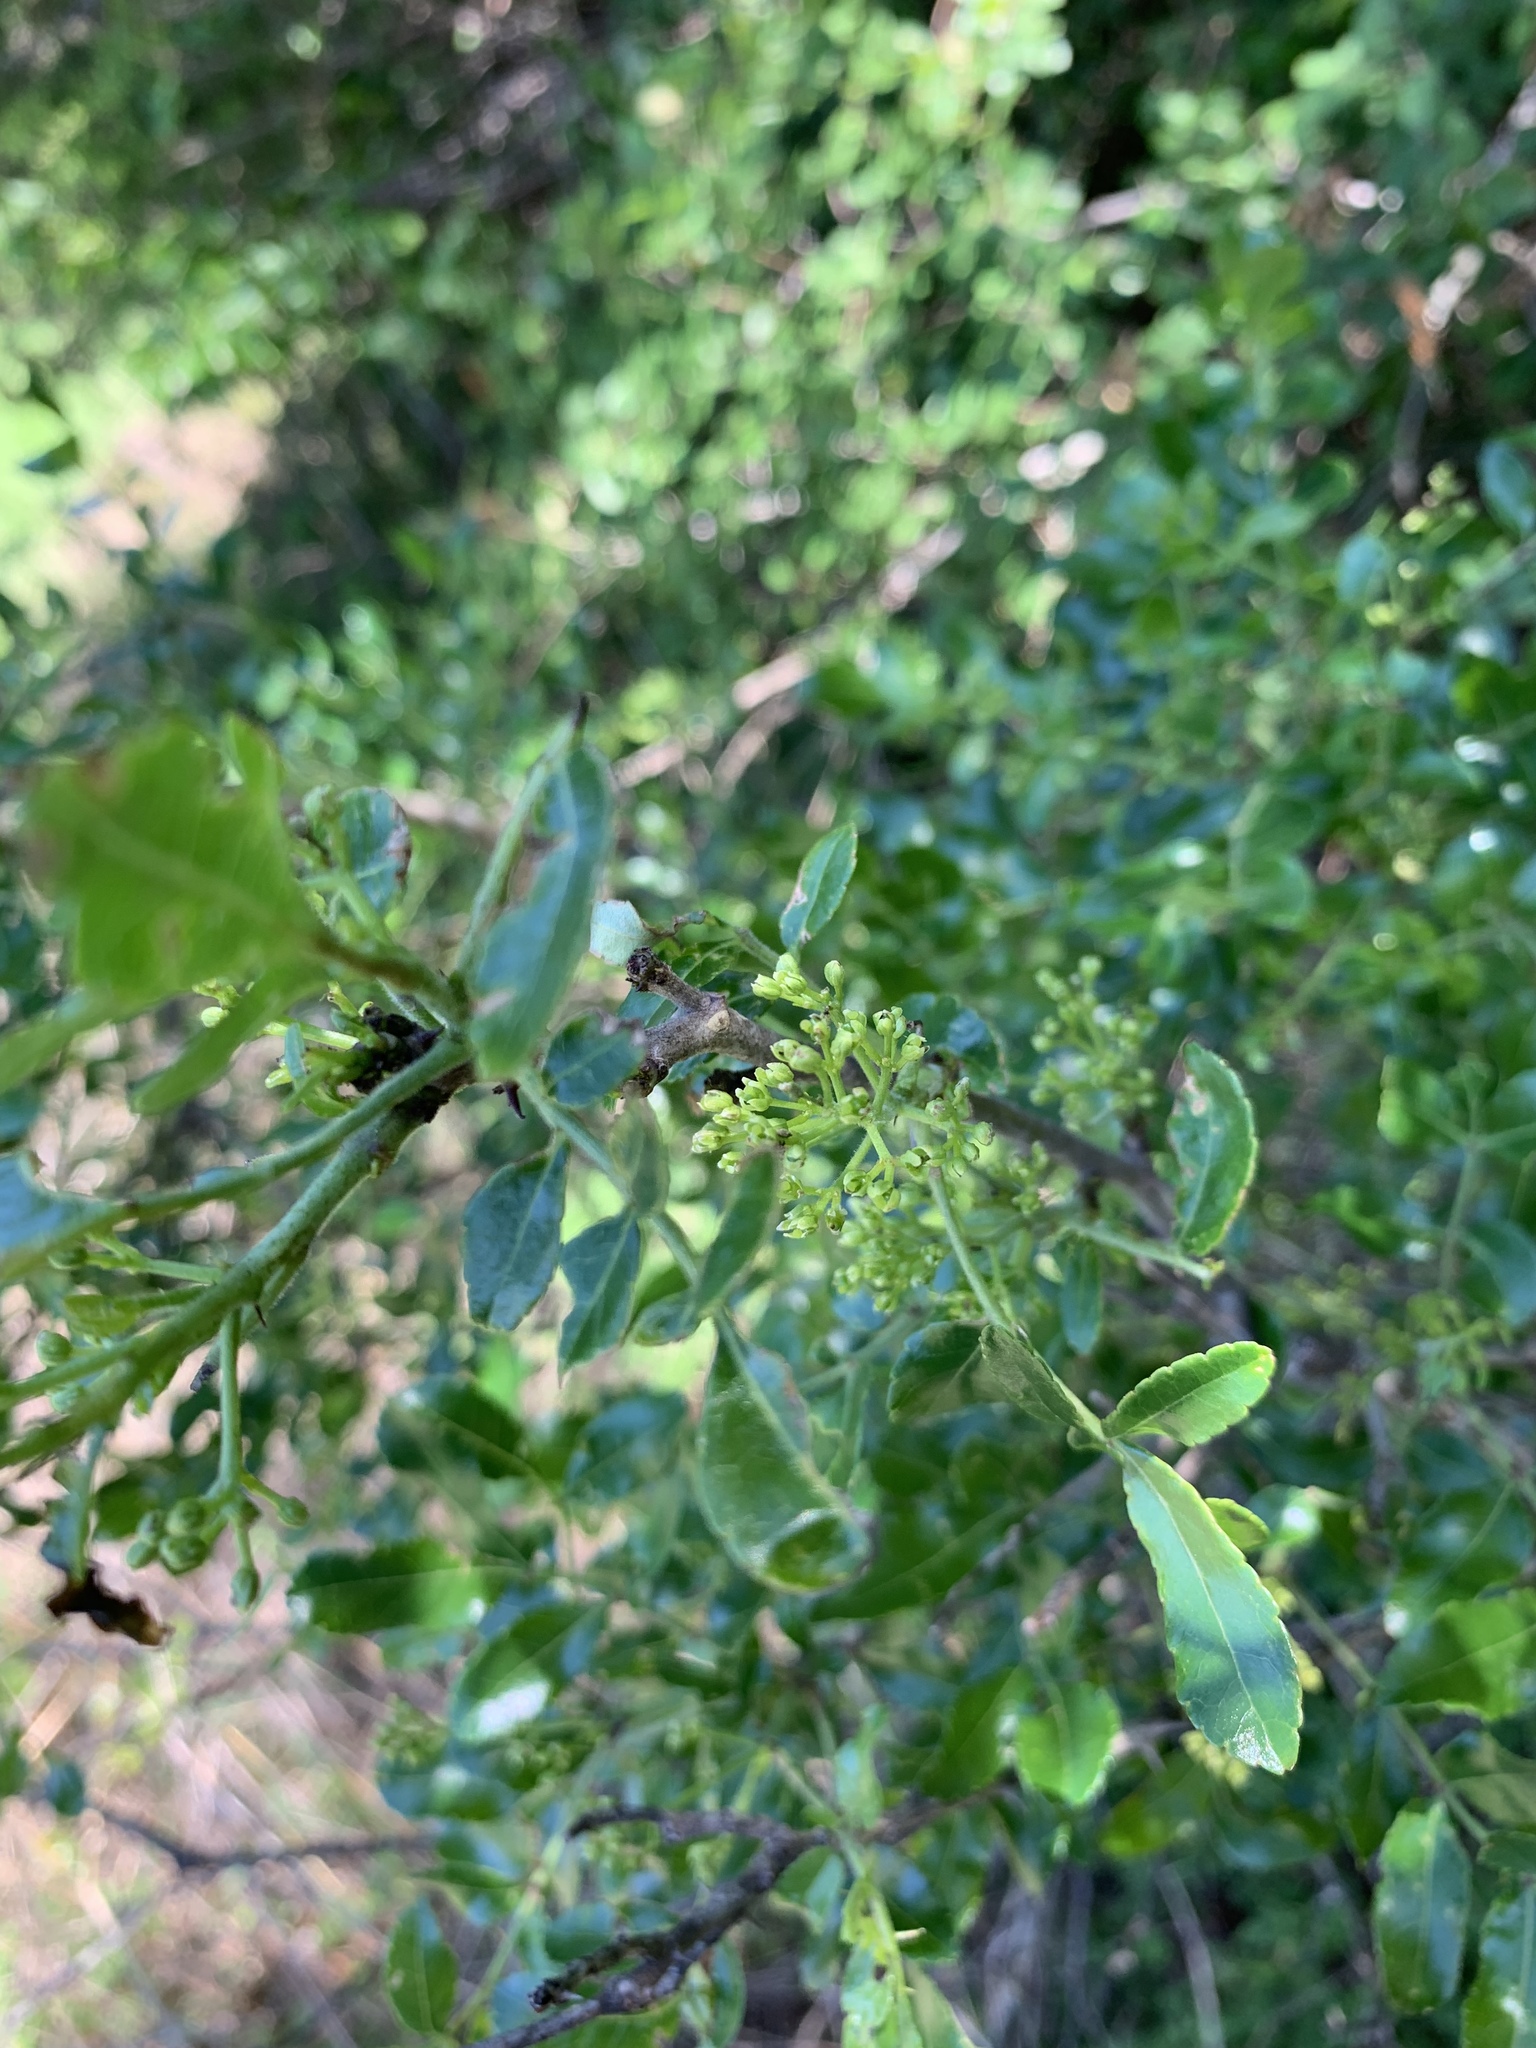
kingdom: Plantae
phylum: Tracheophyta
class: Magnoliopsida
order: Sapindales
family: Rutaceae
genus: Zanthoxylum
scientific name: Zanthoxylum clava-herculis
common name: Hercules'-club
